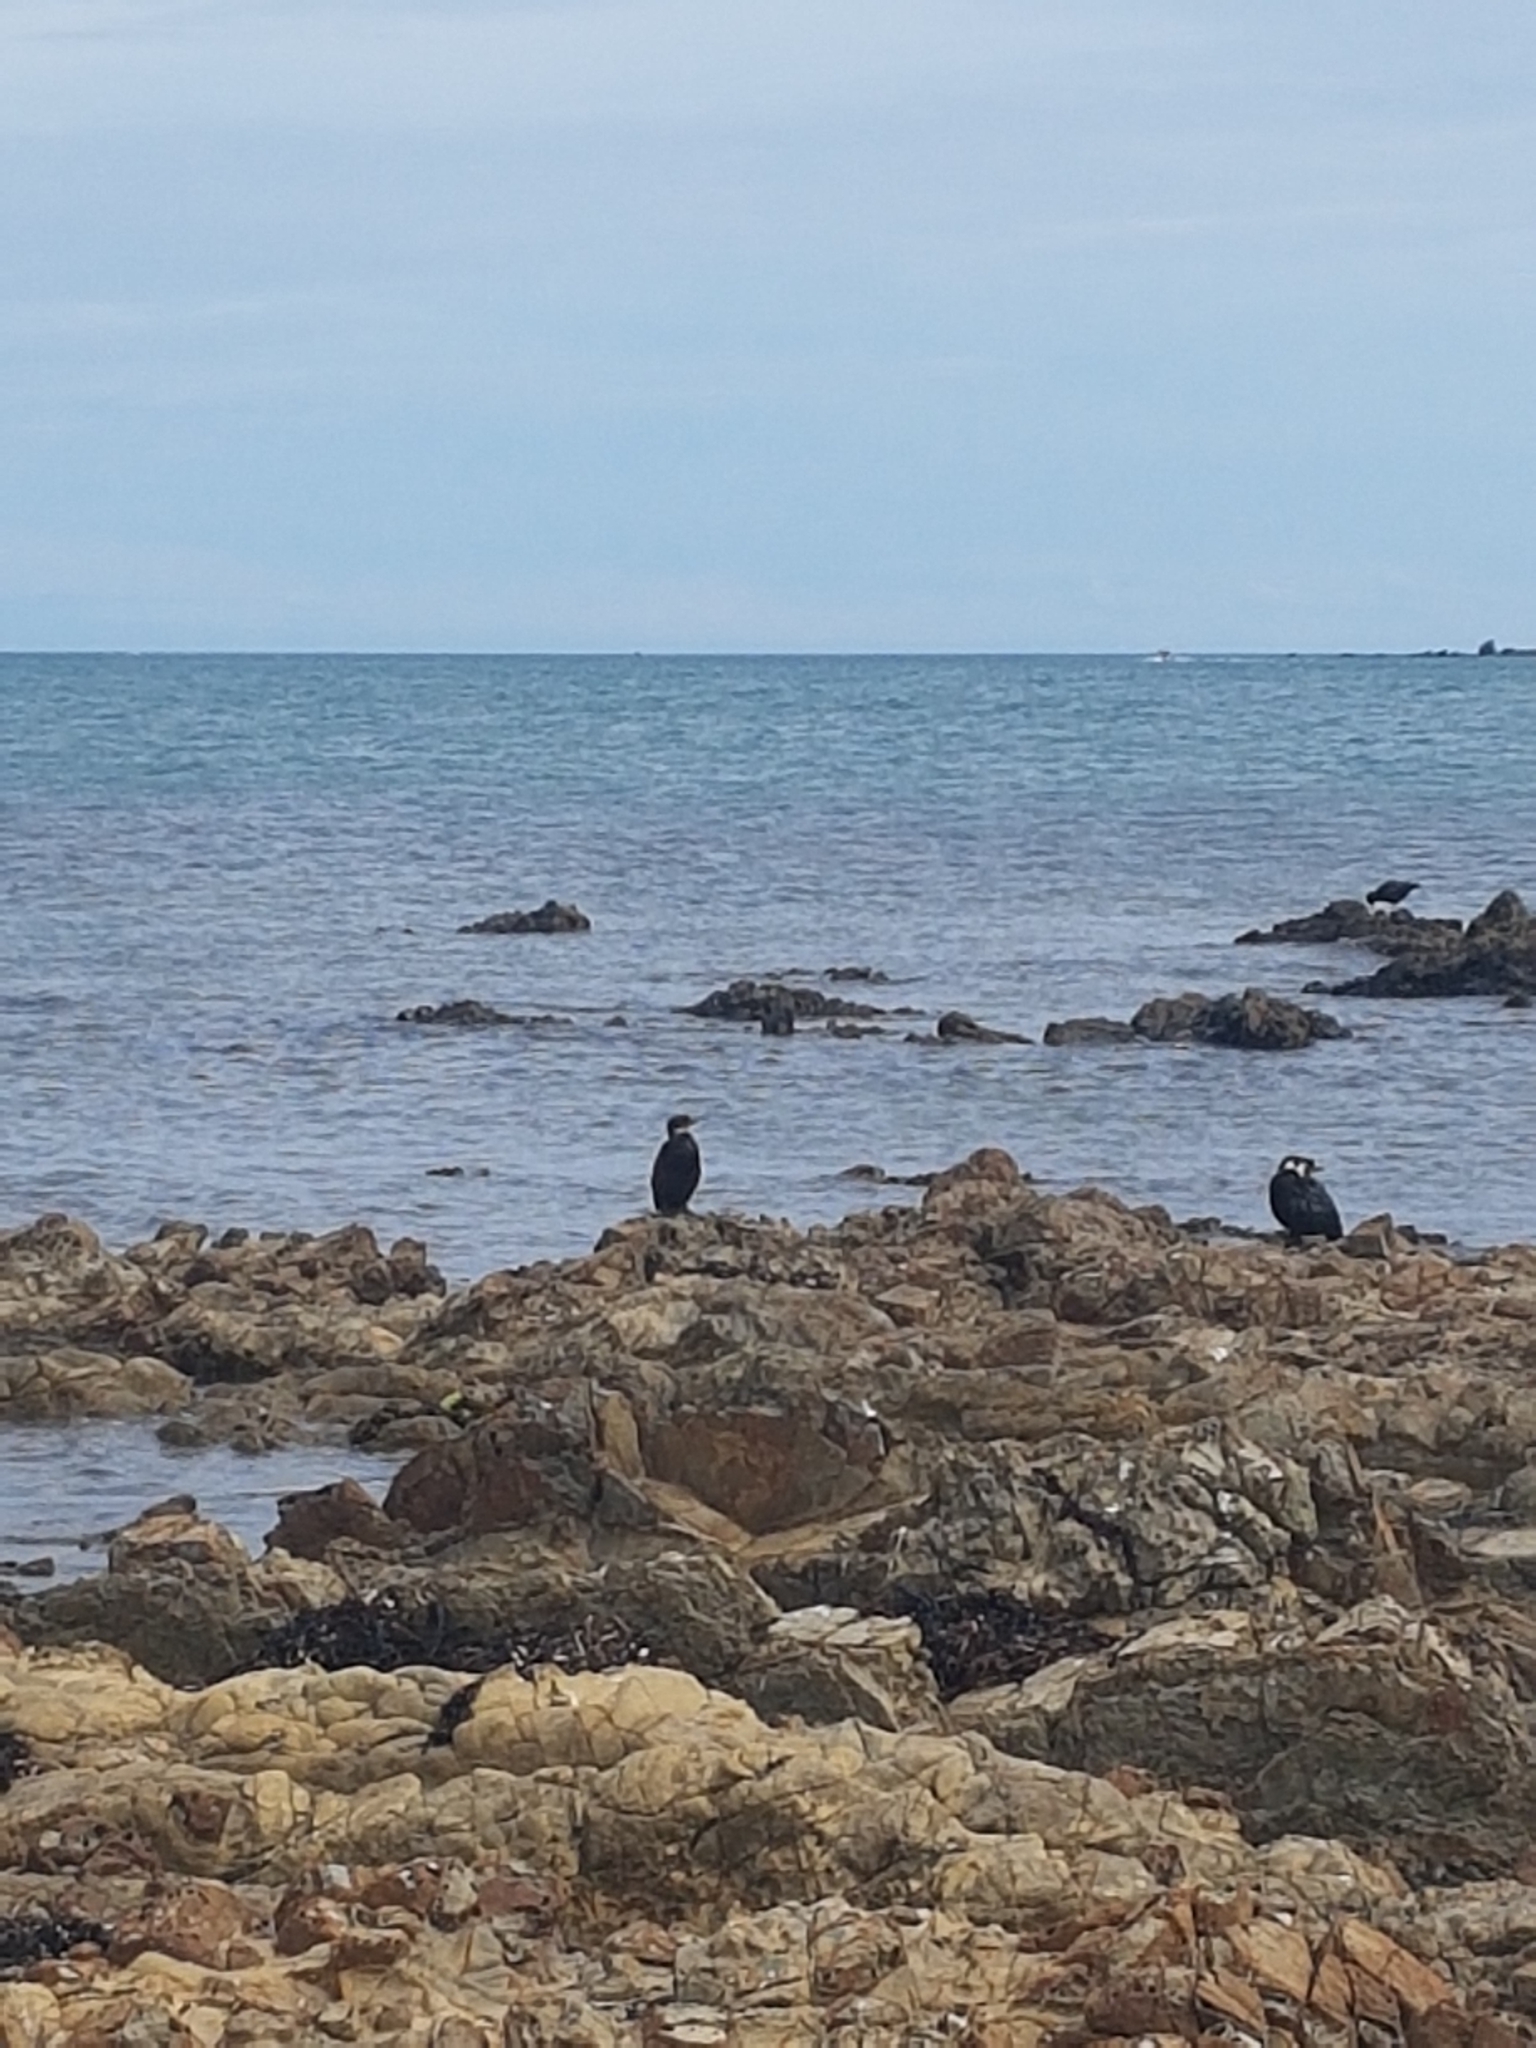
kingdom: Animalia
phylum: Chordata
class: Aves
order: Suliformes
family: Phalacrocoracidae
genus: Microcarbo
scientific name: Microcarbo melanoleucos
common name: Little pied cormorant
